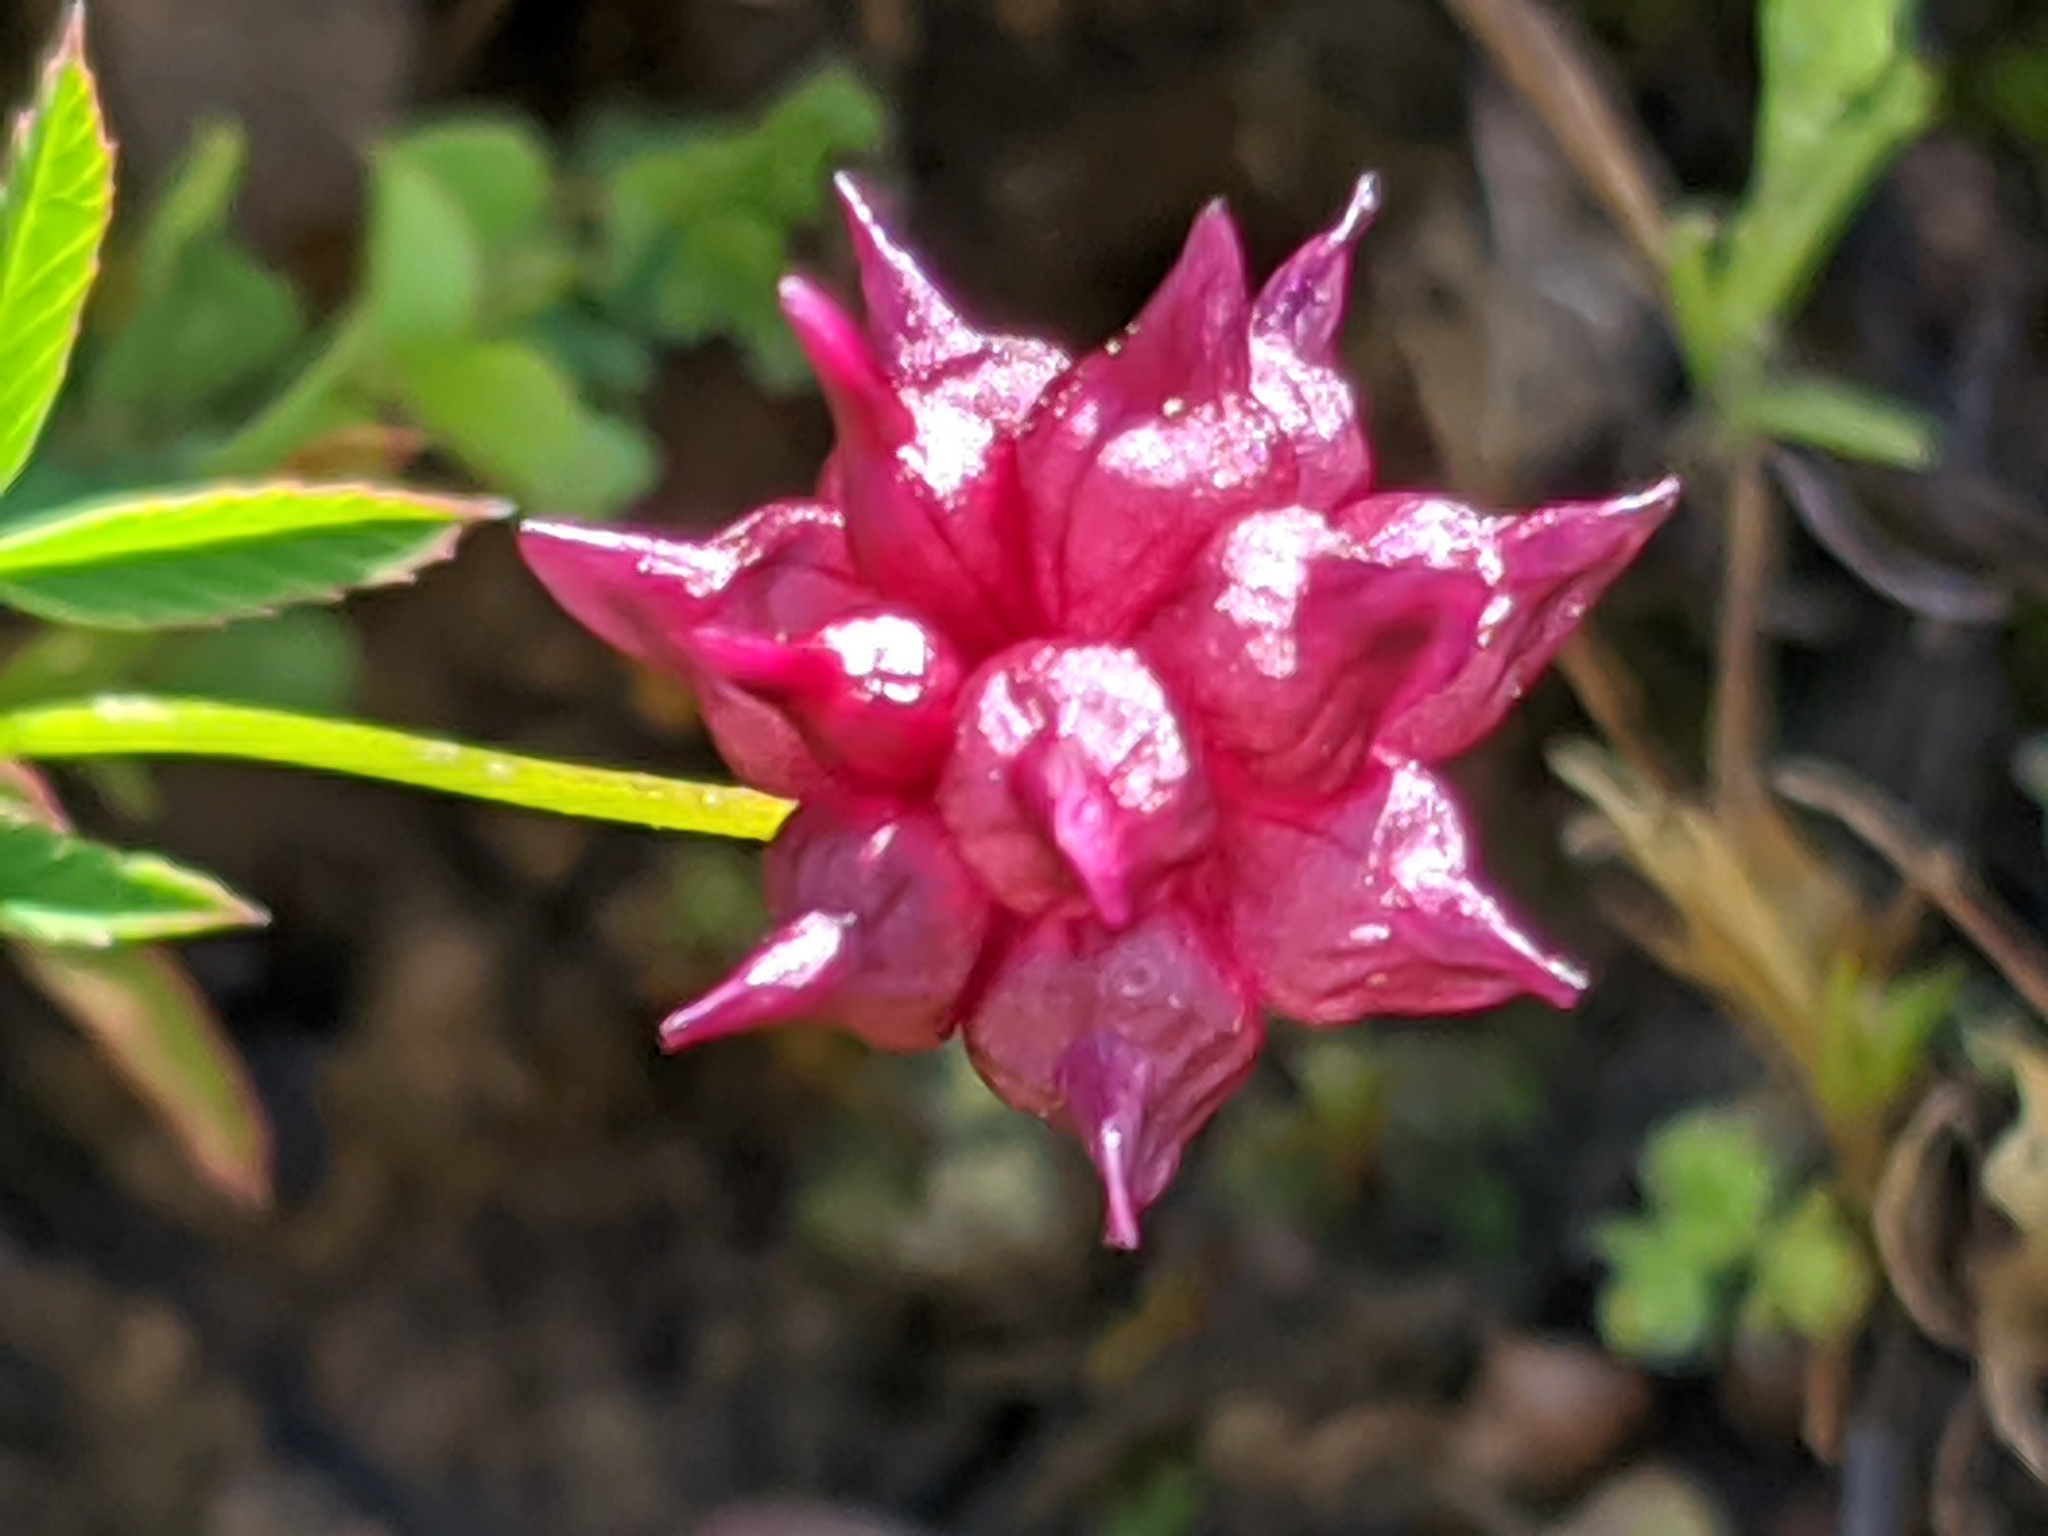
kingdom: Plantae
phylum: Tracheophyta
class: Magnoliopsida
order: Fabales
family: Fabaceae
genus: Trifolium
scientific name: Trifolium depauperatum
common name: Poverty clover
